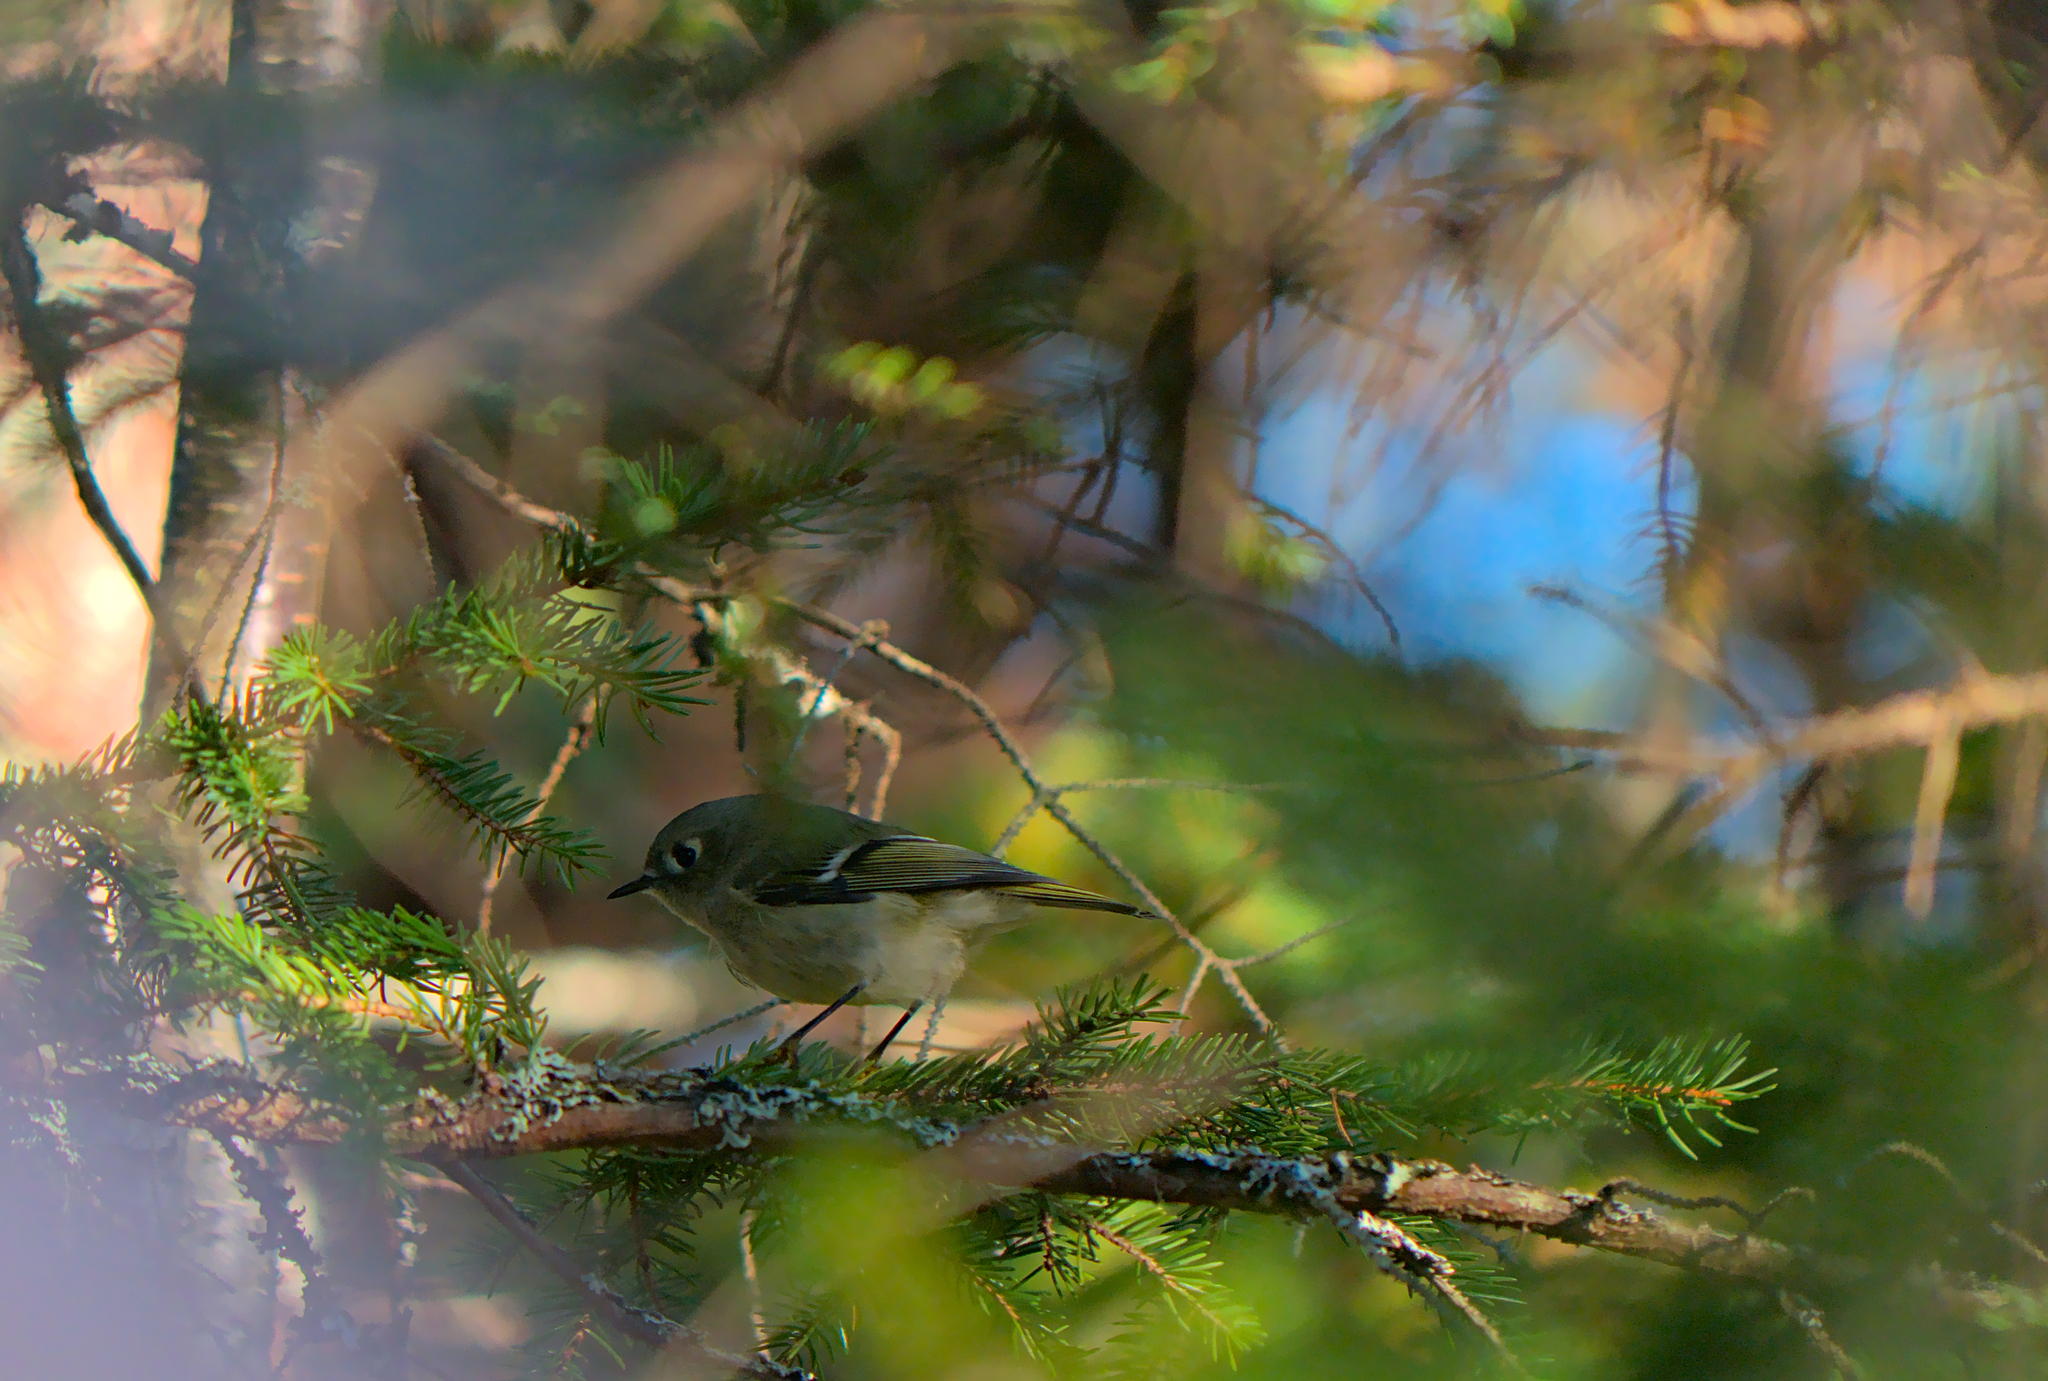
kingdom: Animalia
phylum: Chordata
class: Aves
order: Passeriformes
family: Regulidae
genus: Regulus
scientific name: Regulus calendula
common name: Ruby-crowned kinglet
